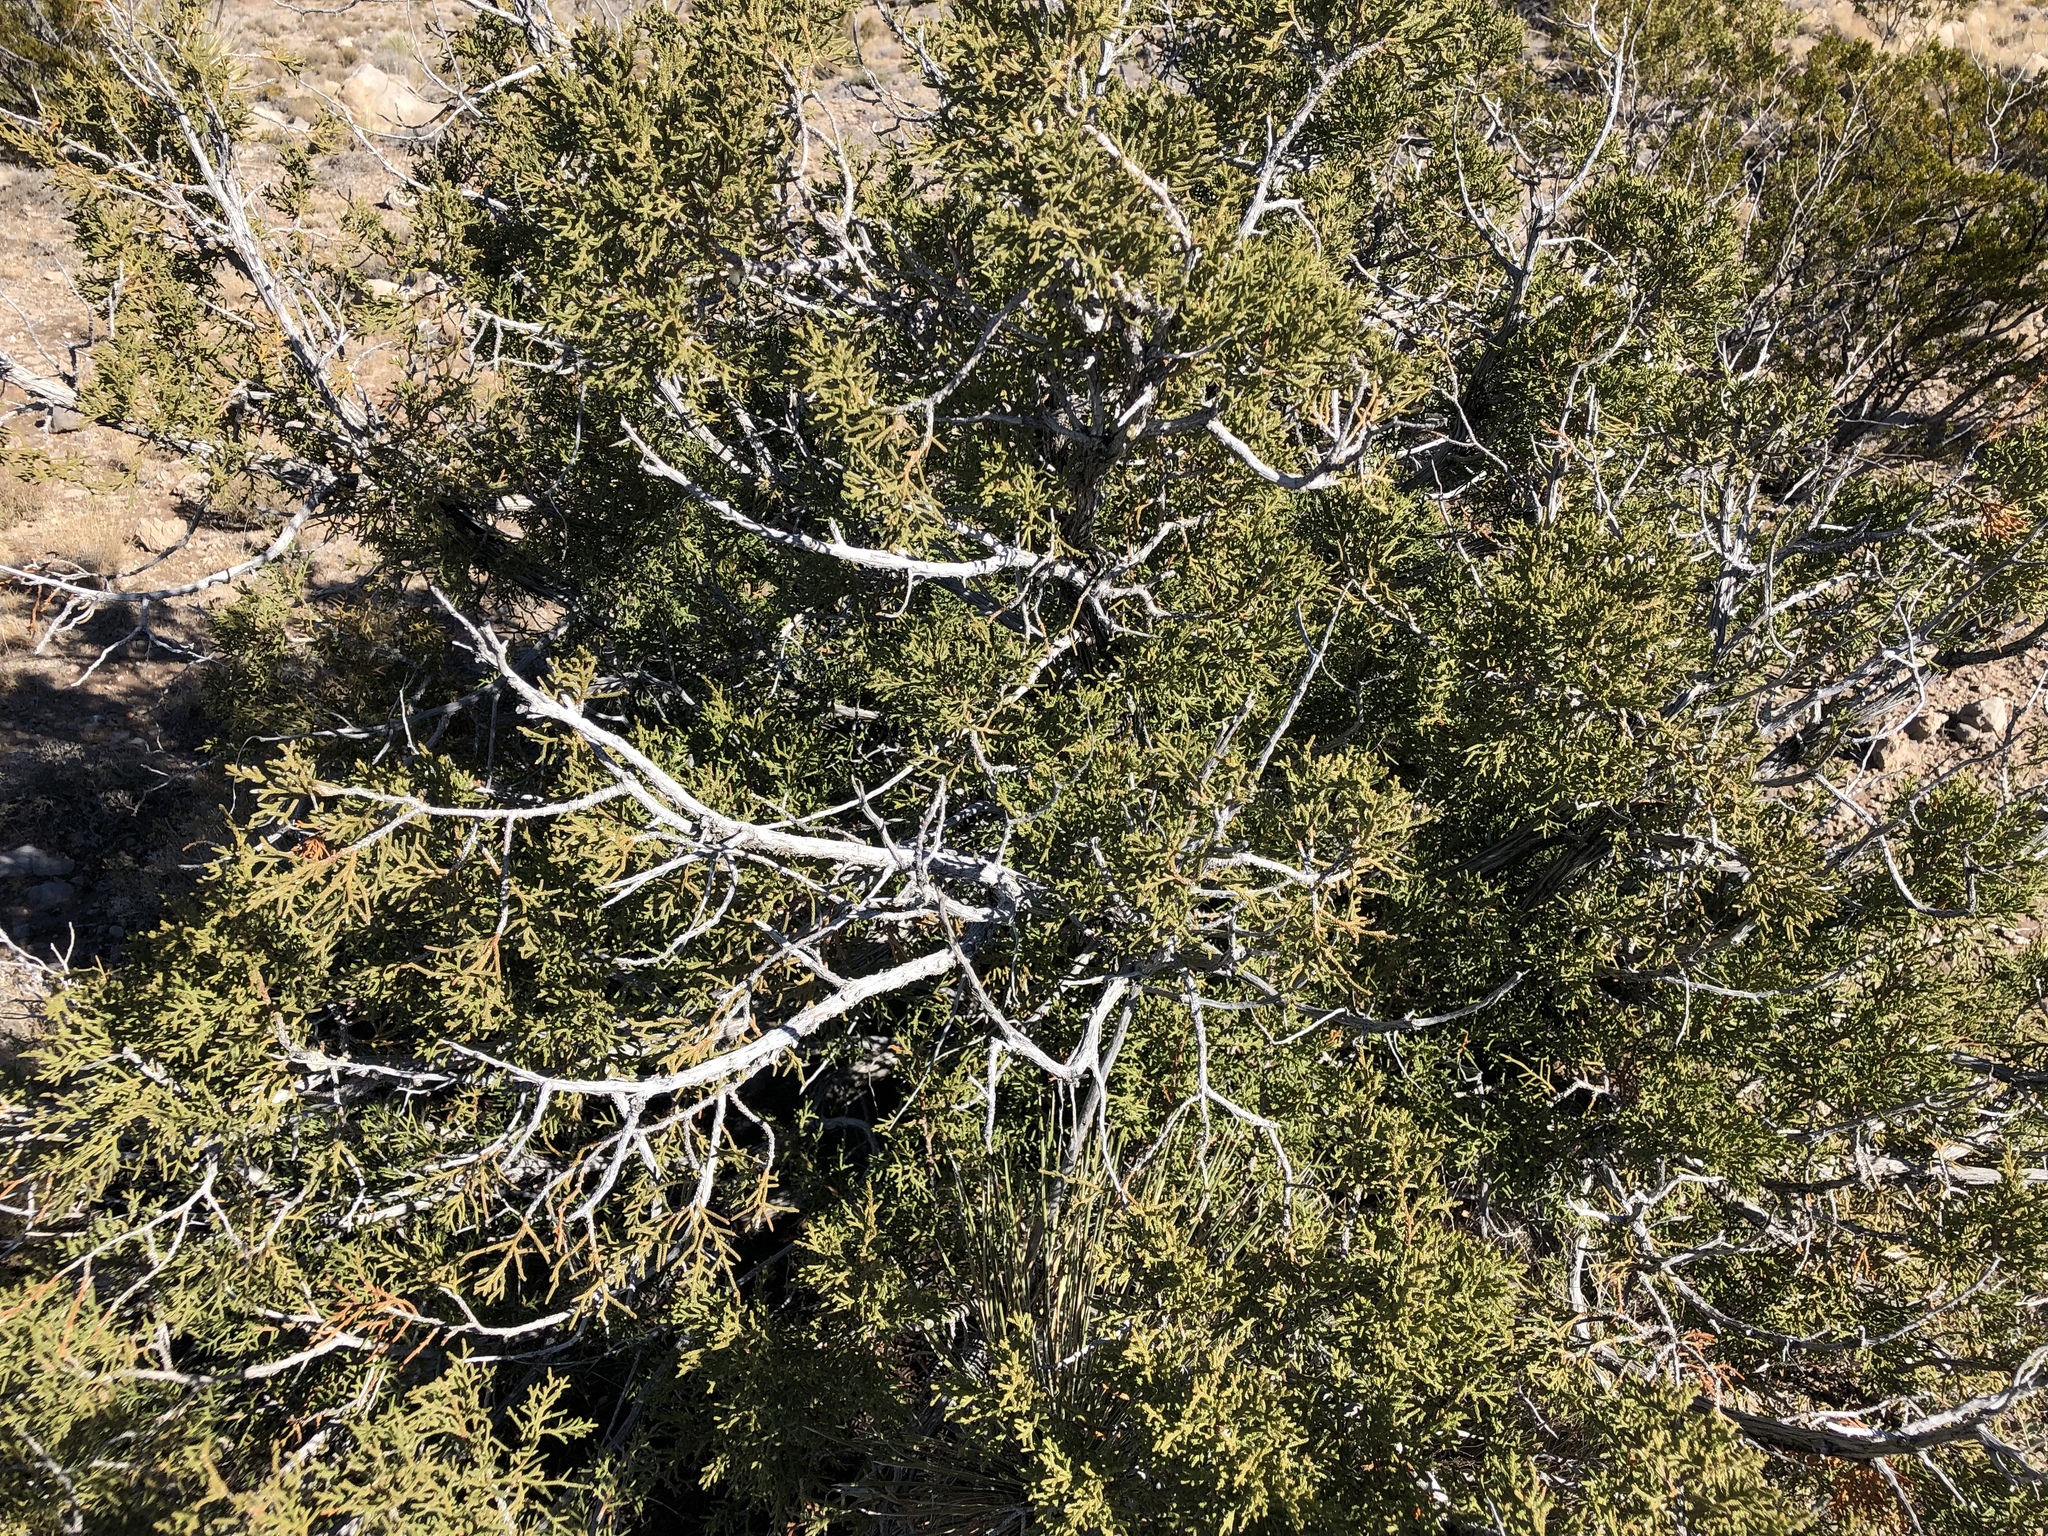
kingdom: Plantae
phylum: Tracheophyta
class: Pinopsida
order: Pinales
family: Cupressaceae
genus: Juniperus
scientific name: Juniperus monosperma
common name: One-seed juniper
